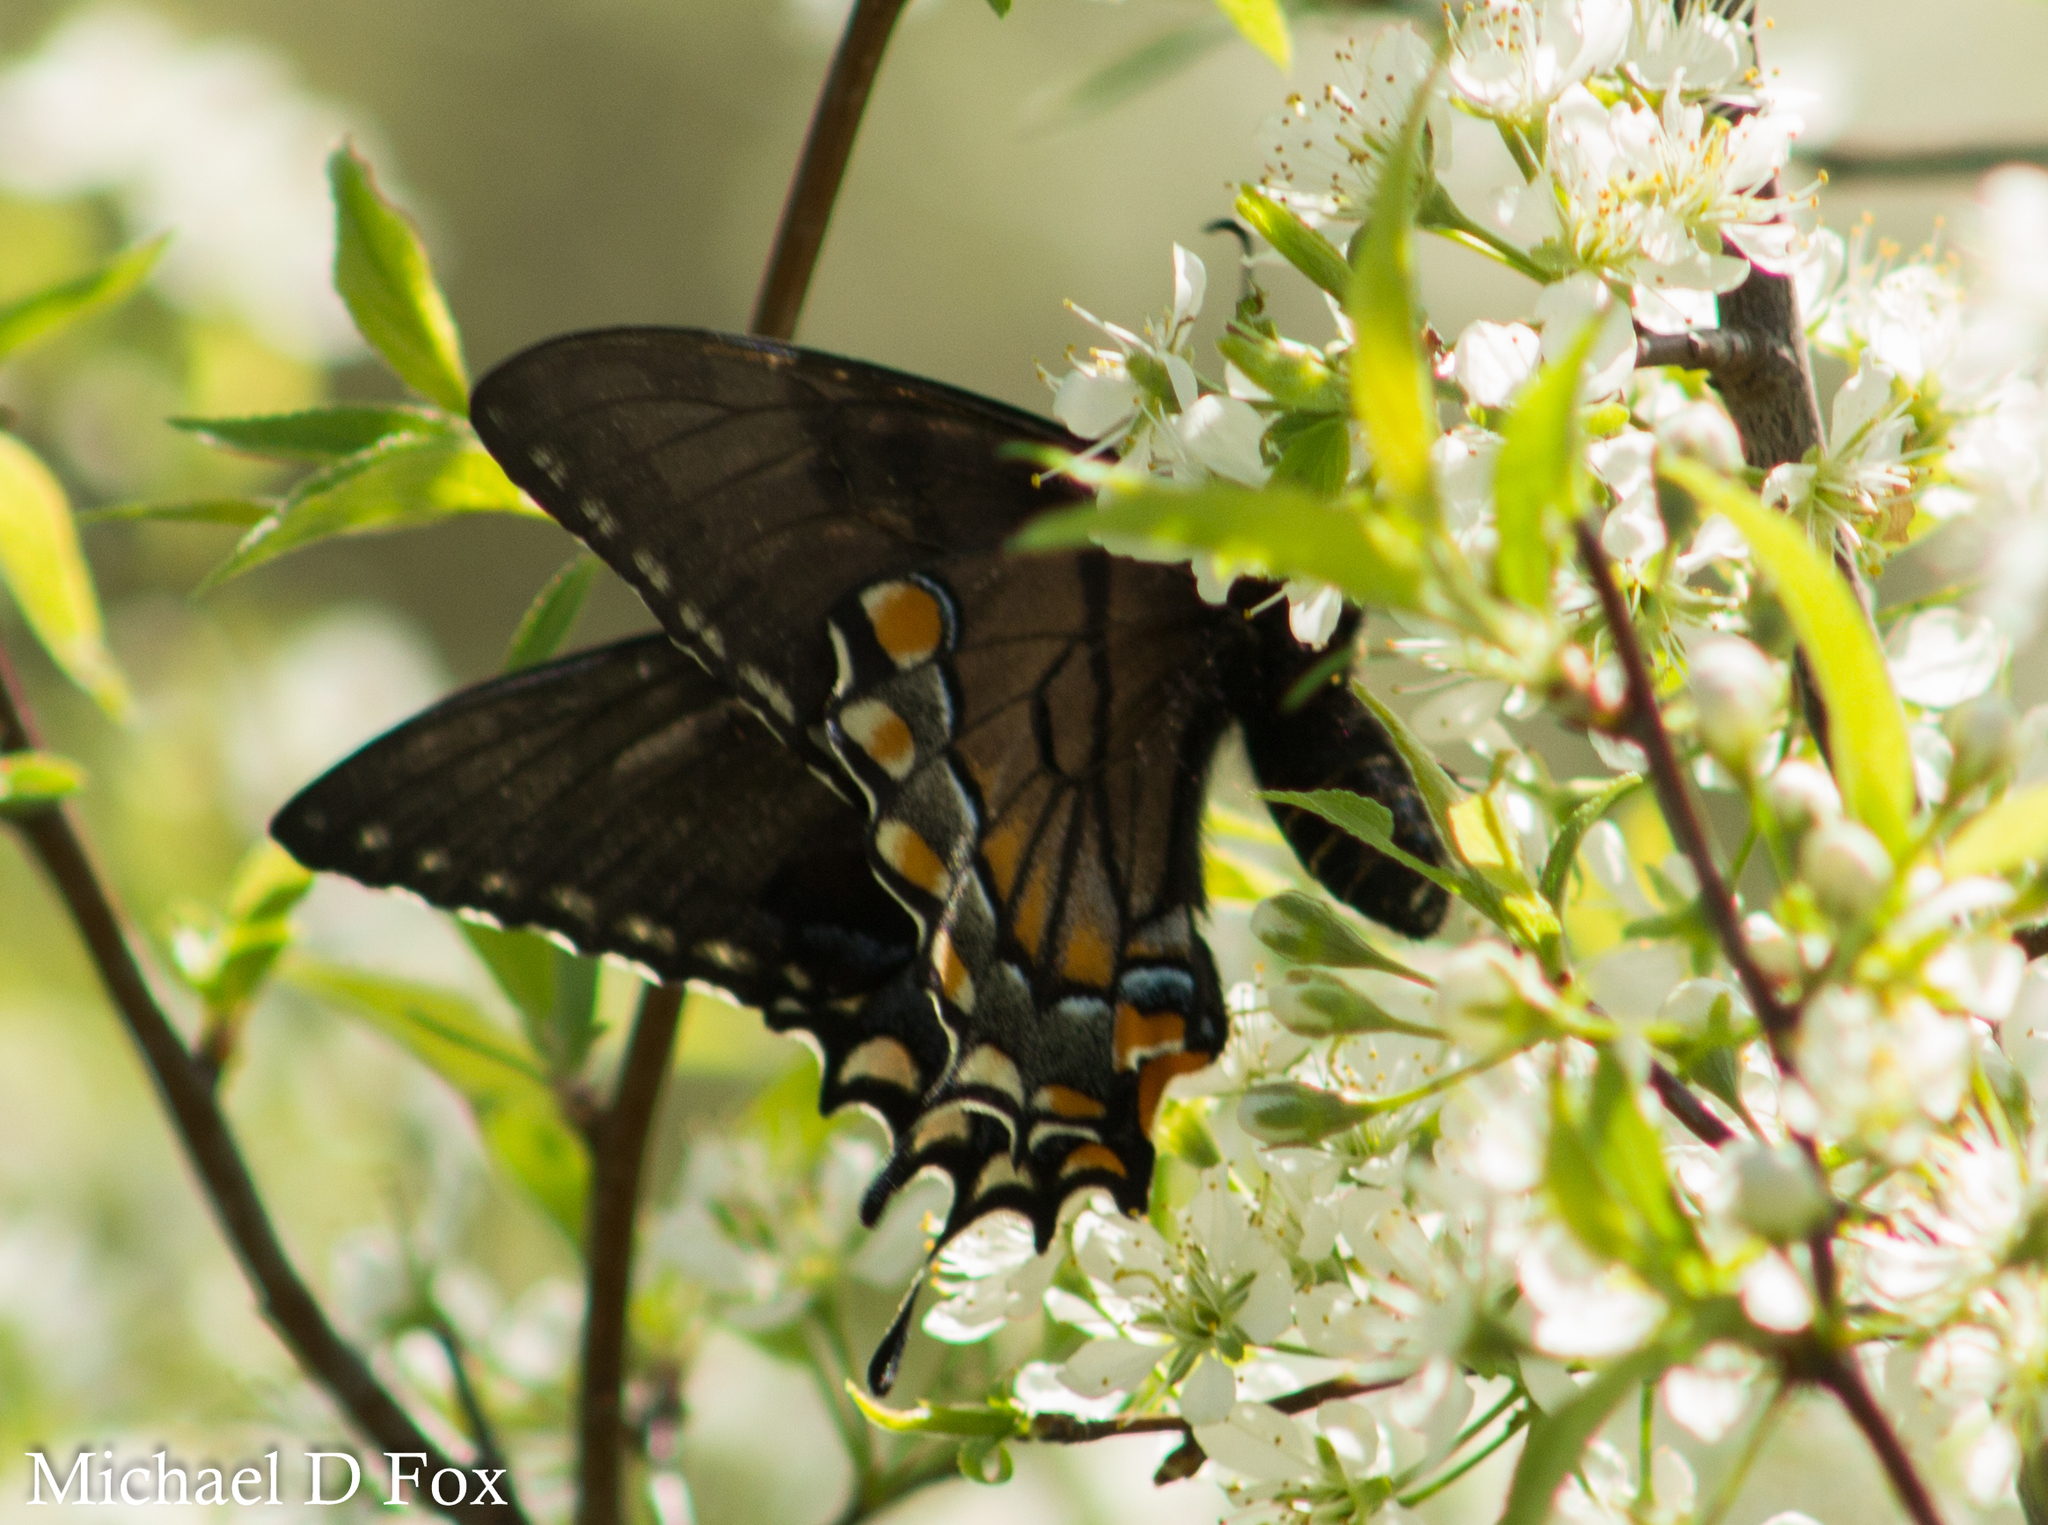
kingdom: Animalia
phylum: Arthropoda
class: Insecta
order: Lepidoptera
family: Papilionidae
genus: Papilio
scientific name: Papilio glaucus
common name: Tiger swallowtail
